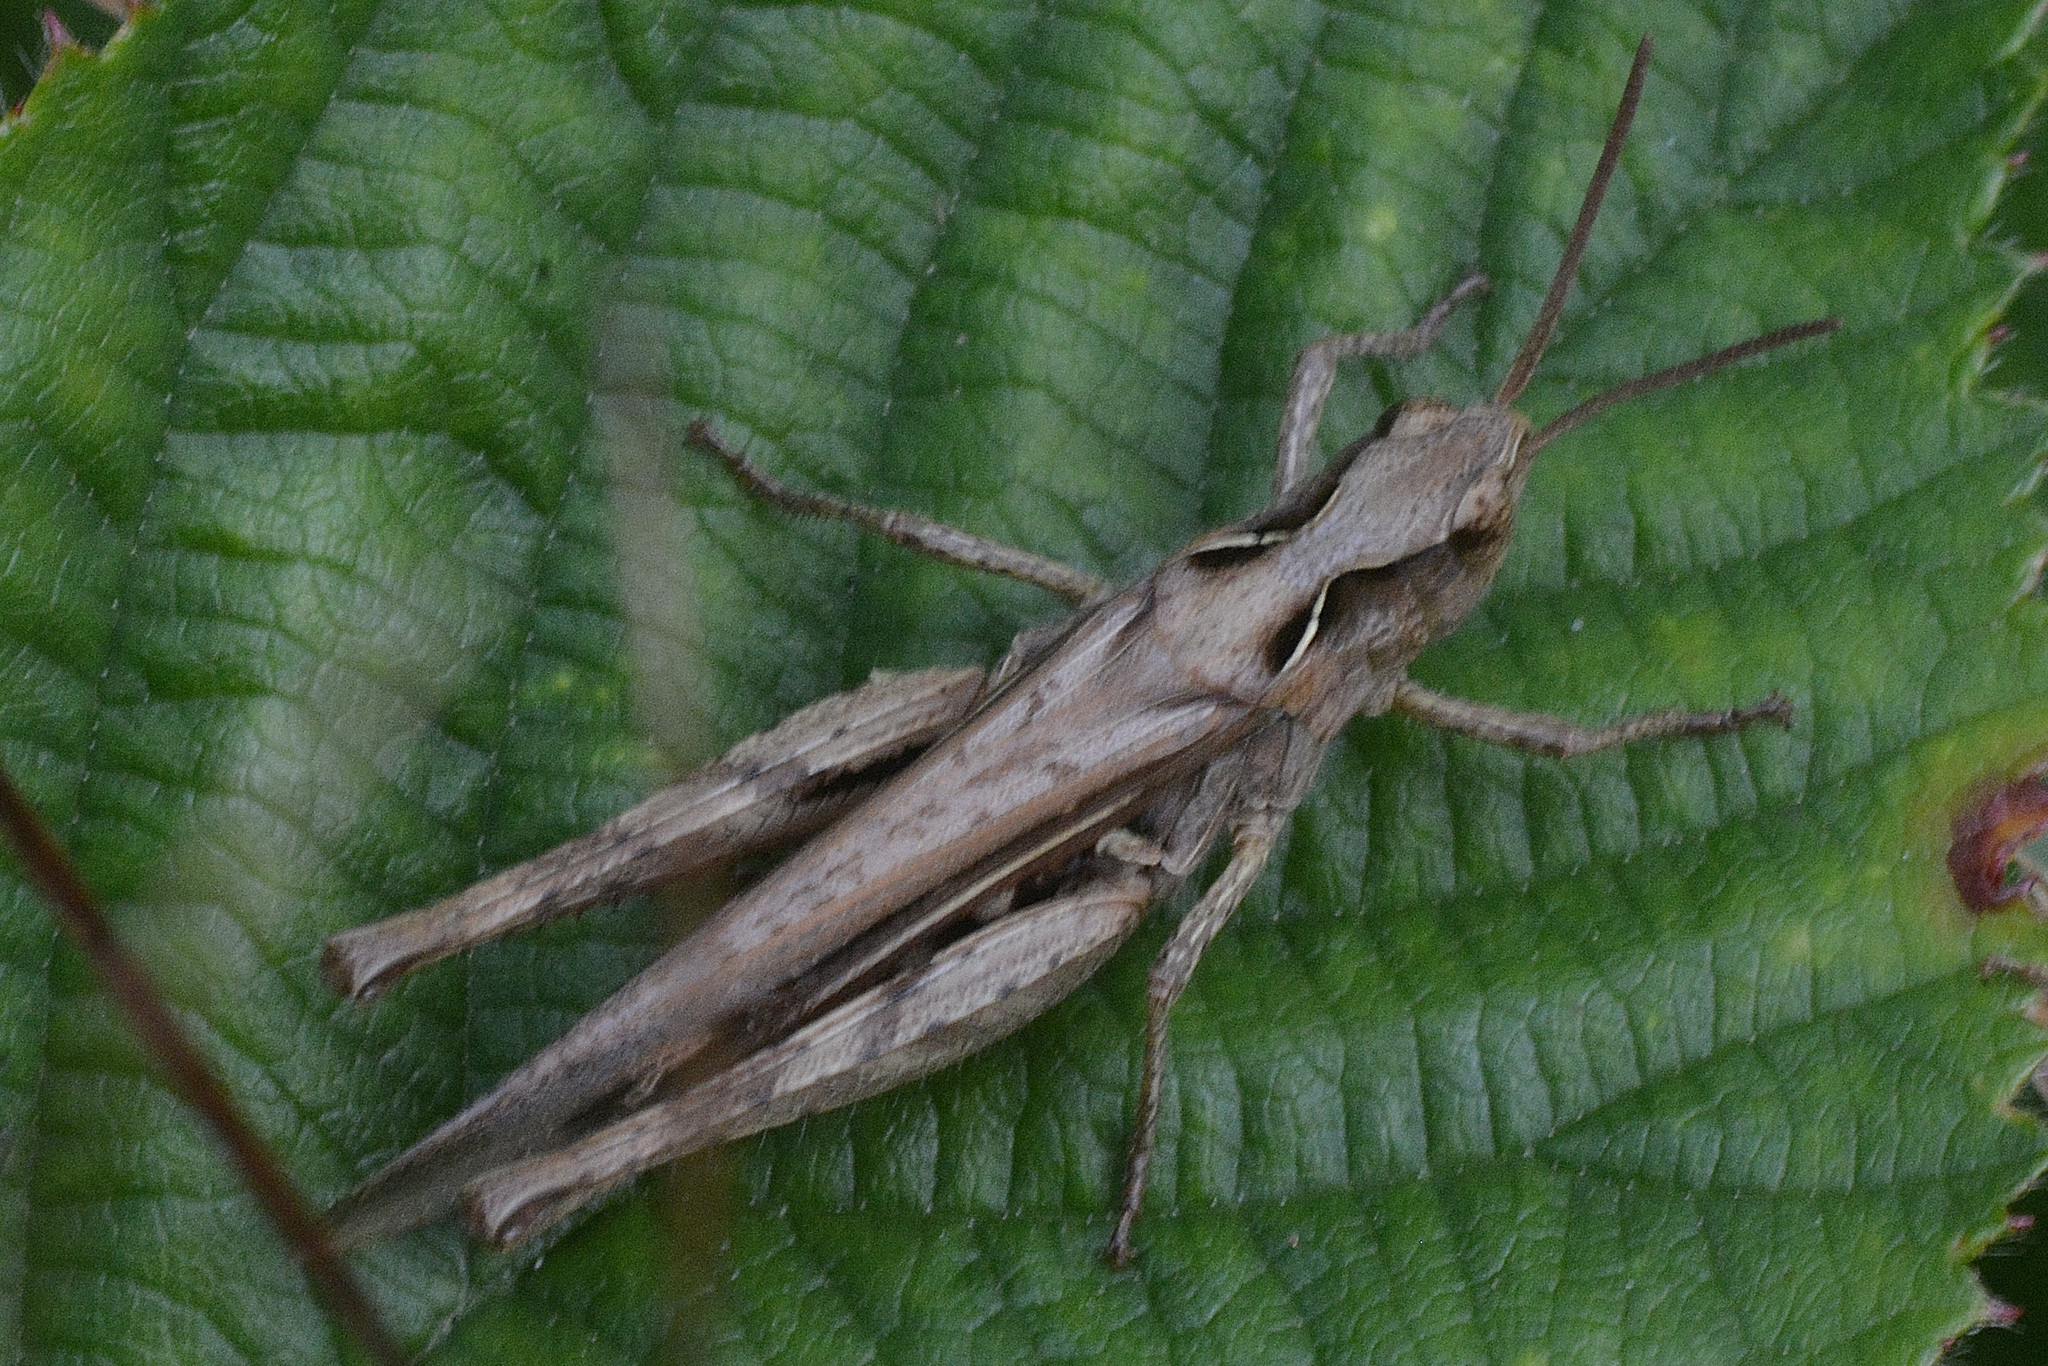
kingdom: Animalia
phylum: Arthropoda
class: Insecta
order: Orthoptera
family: Acrididae
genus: Chorthippus
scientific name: Chorthippus brunneus
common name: Field grasshopper
